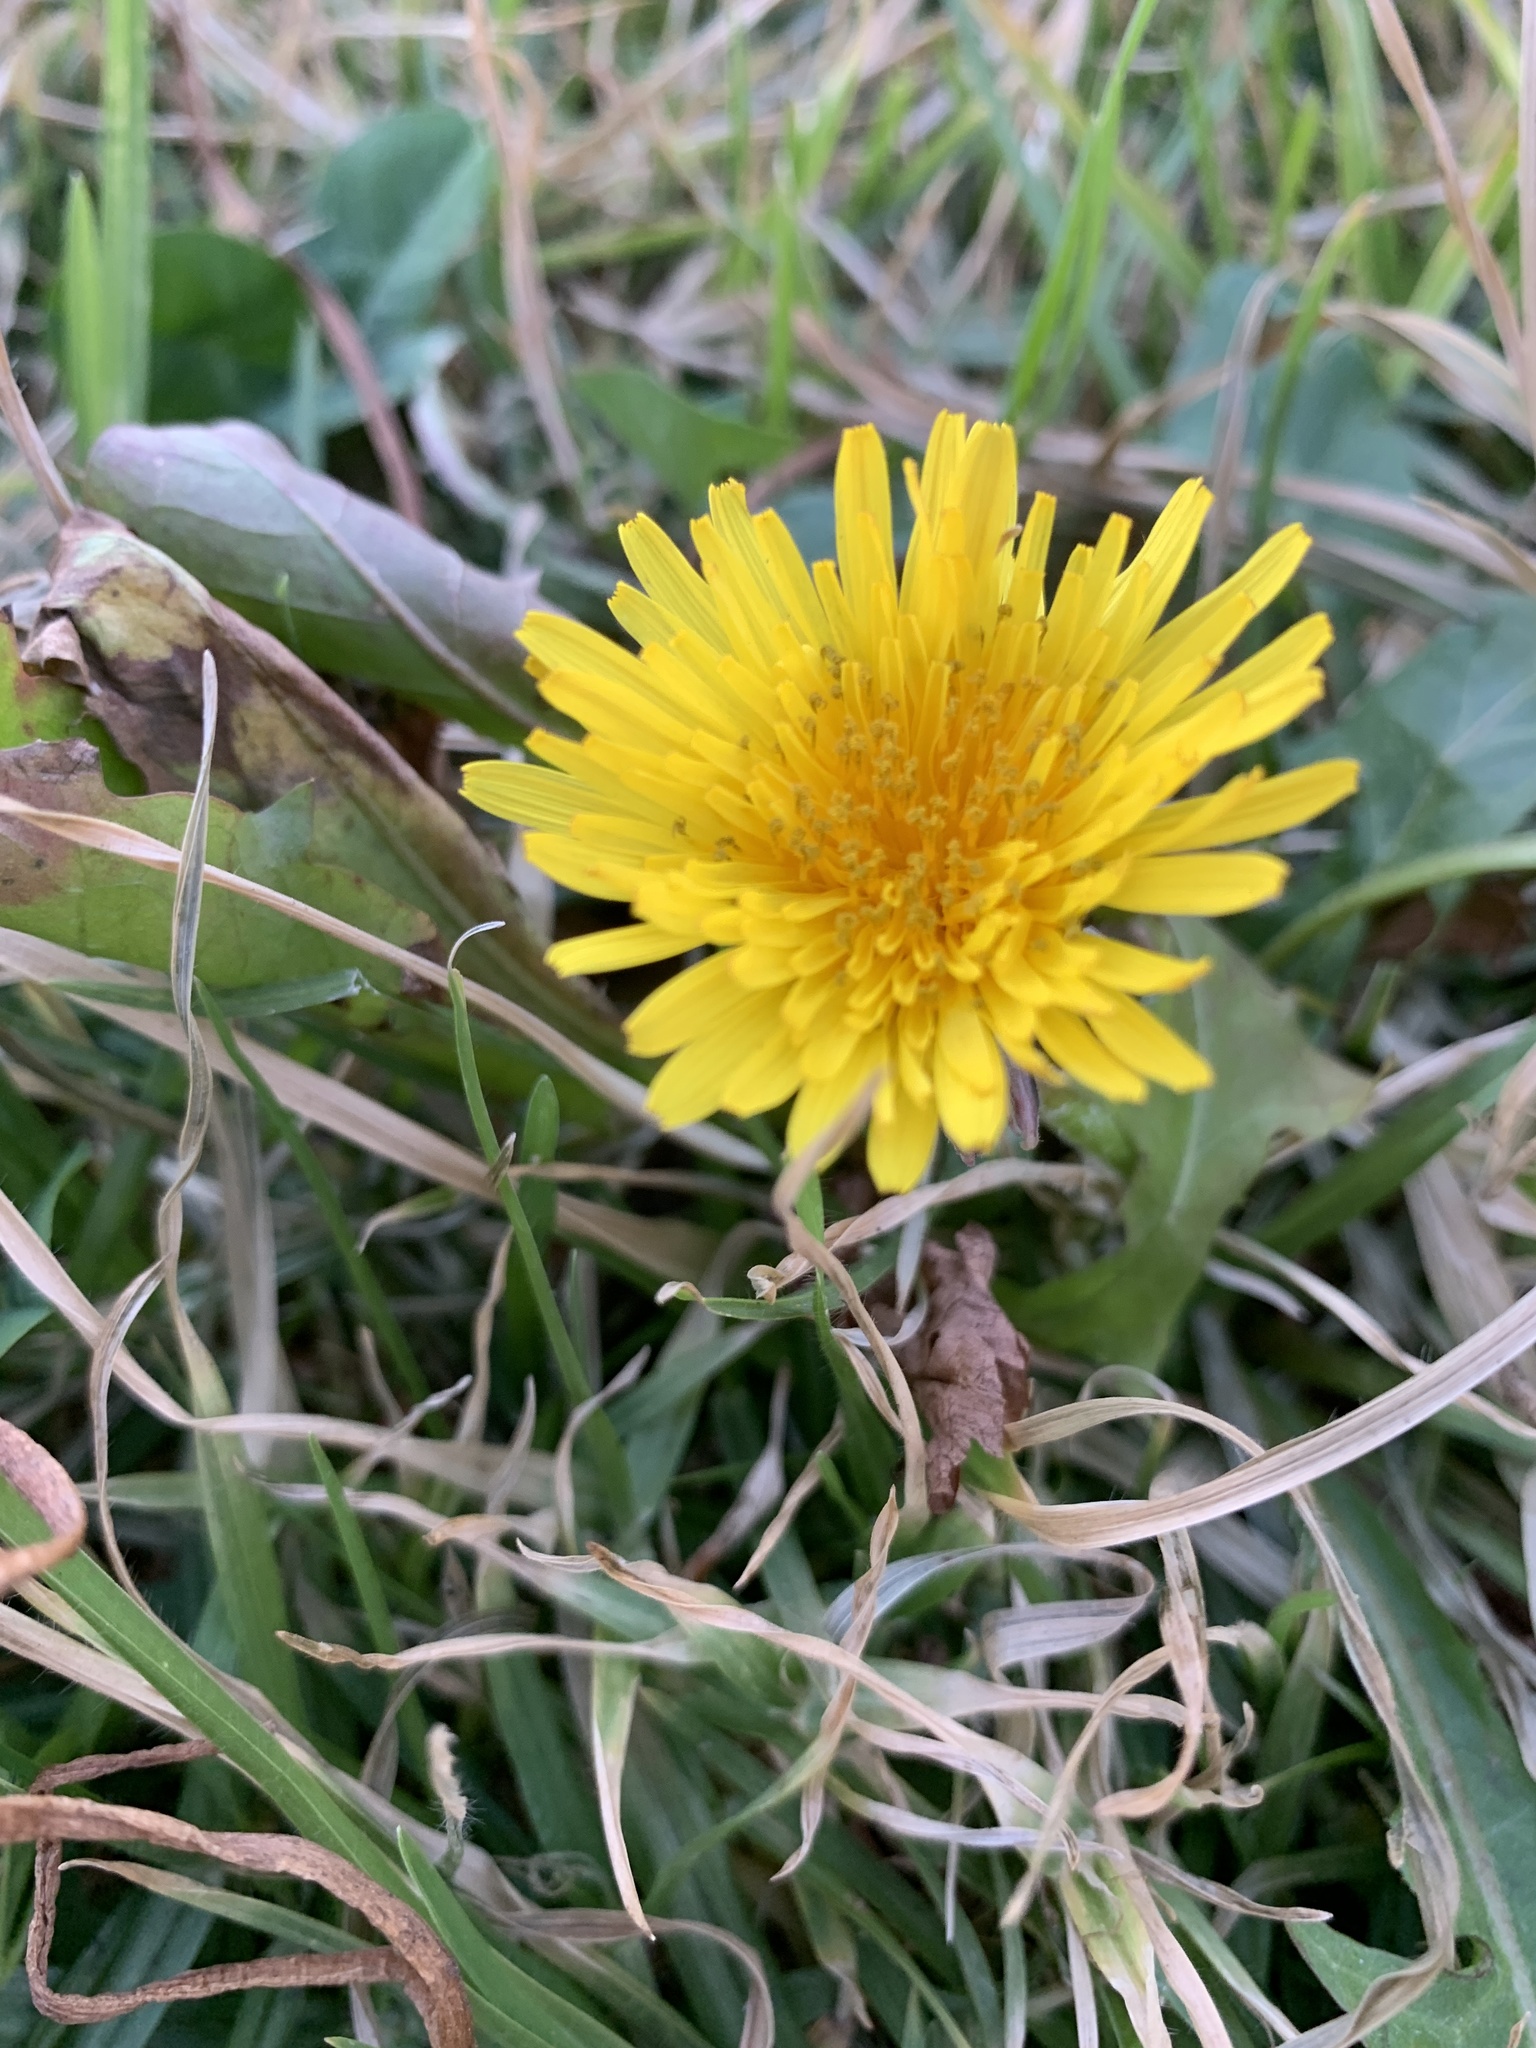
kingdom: Plantae
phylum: Tracheophyta
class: Magnoliopsida
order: Asterales
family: Asteraceae
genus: Taraxacum
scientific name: Taraxacum officinale
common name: Common dandelion
